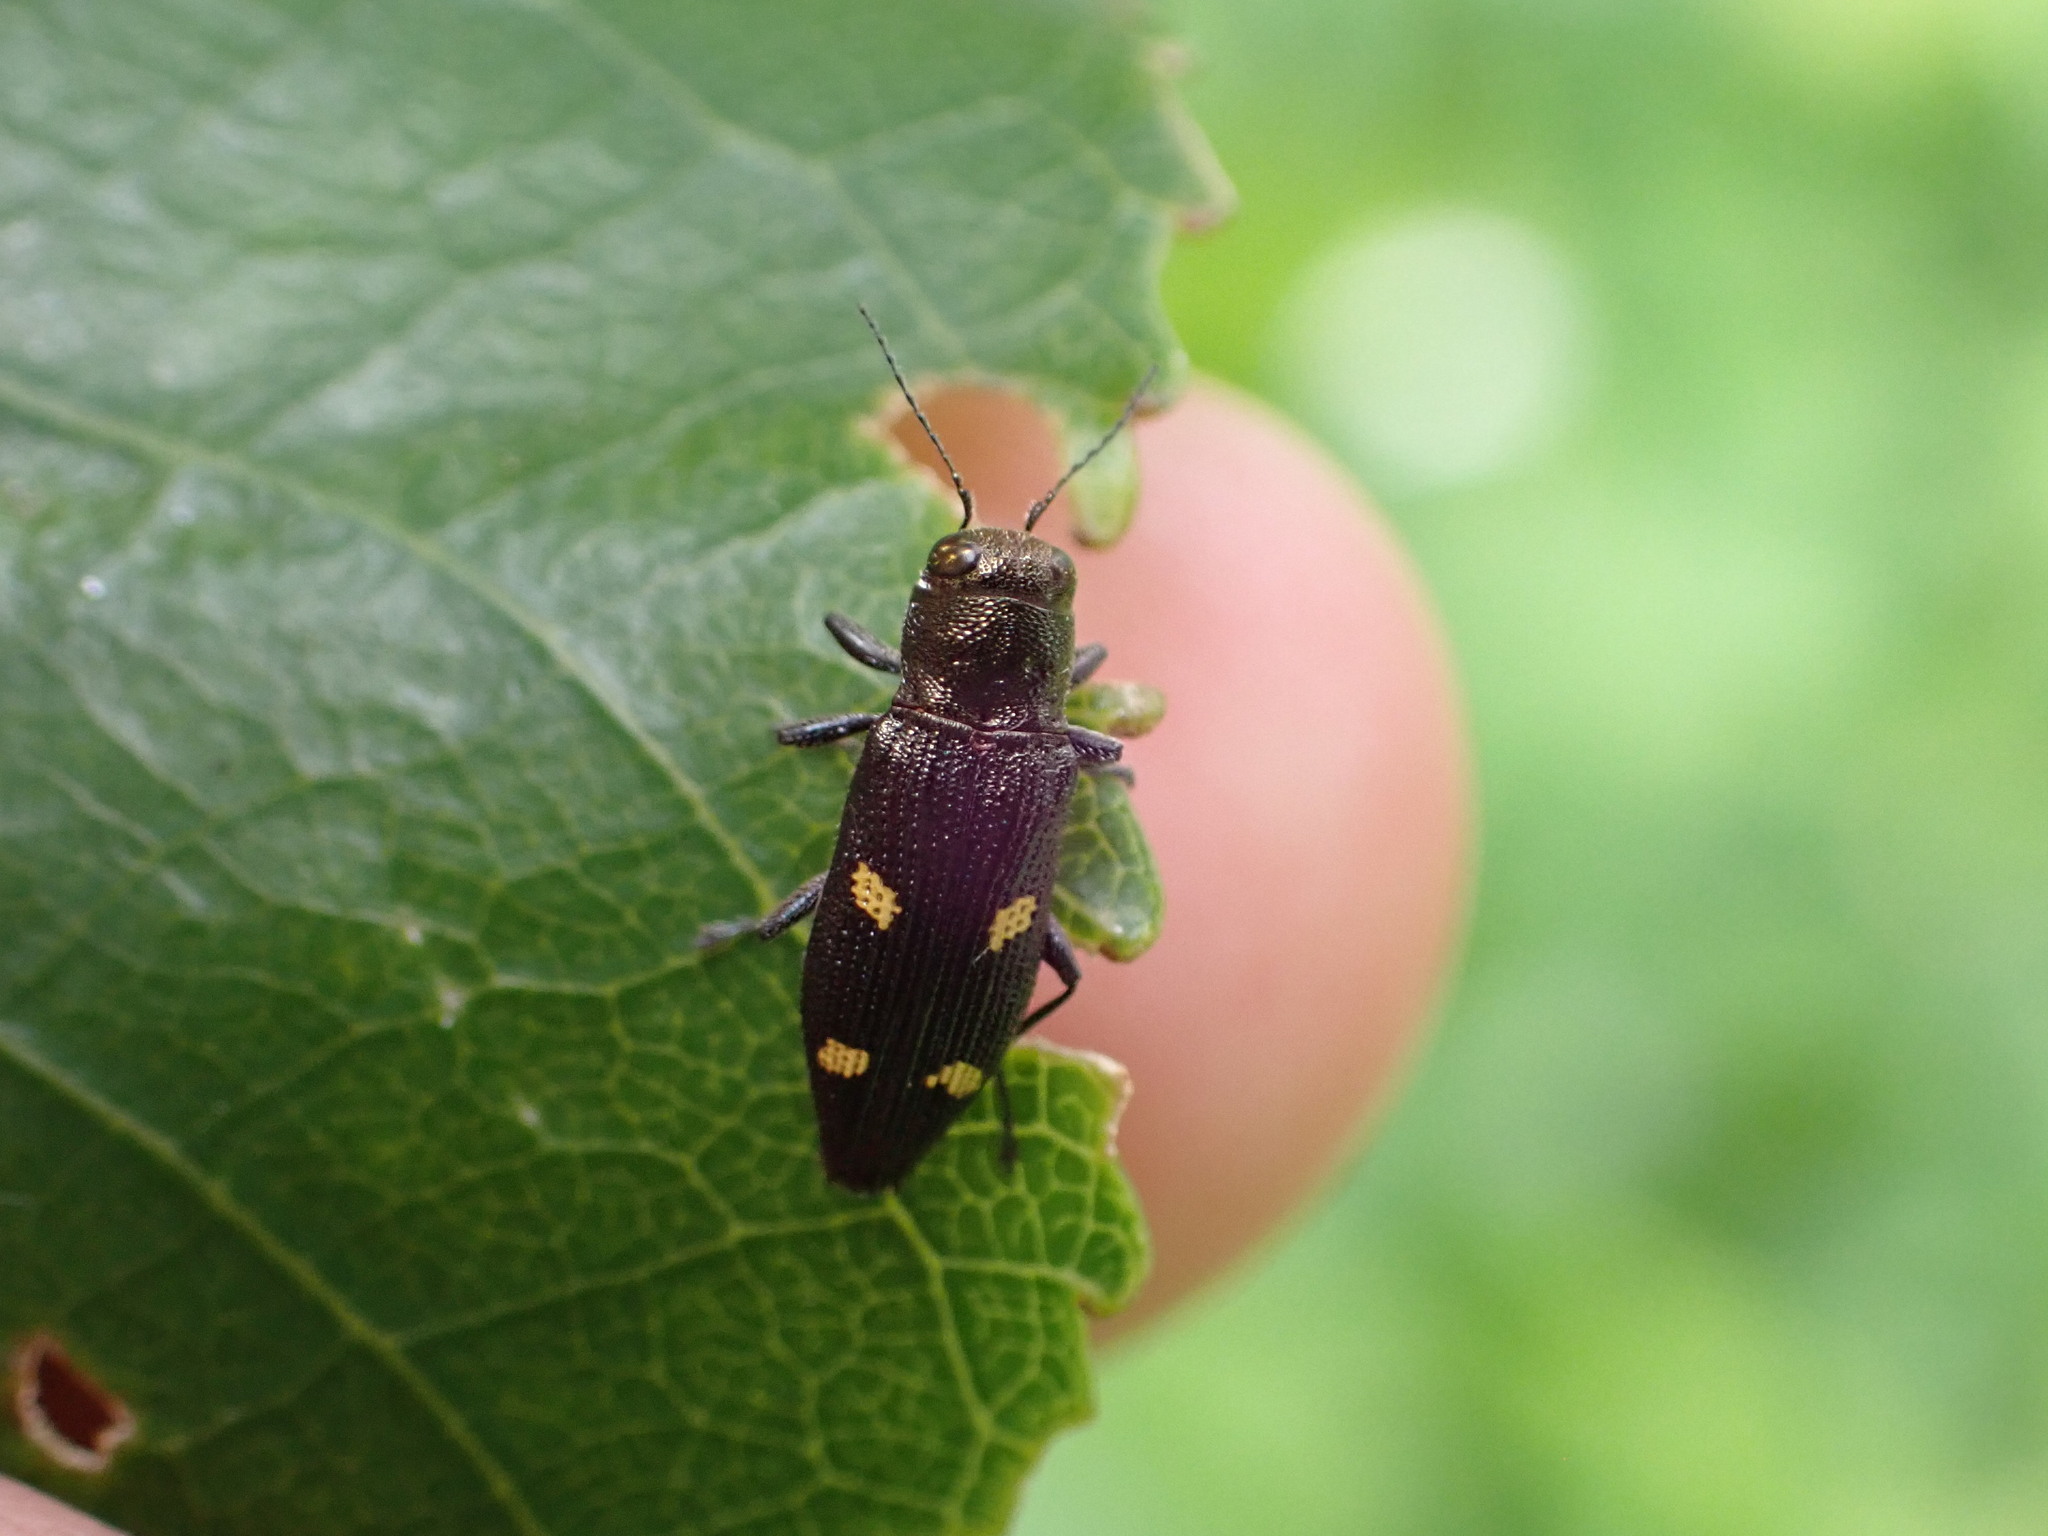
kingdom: Animalia
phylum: Arthropoda
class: Insecta
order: Coleoptera
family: Buprestidae
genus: Nascioides
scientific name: Nascioides enysi
